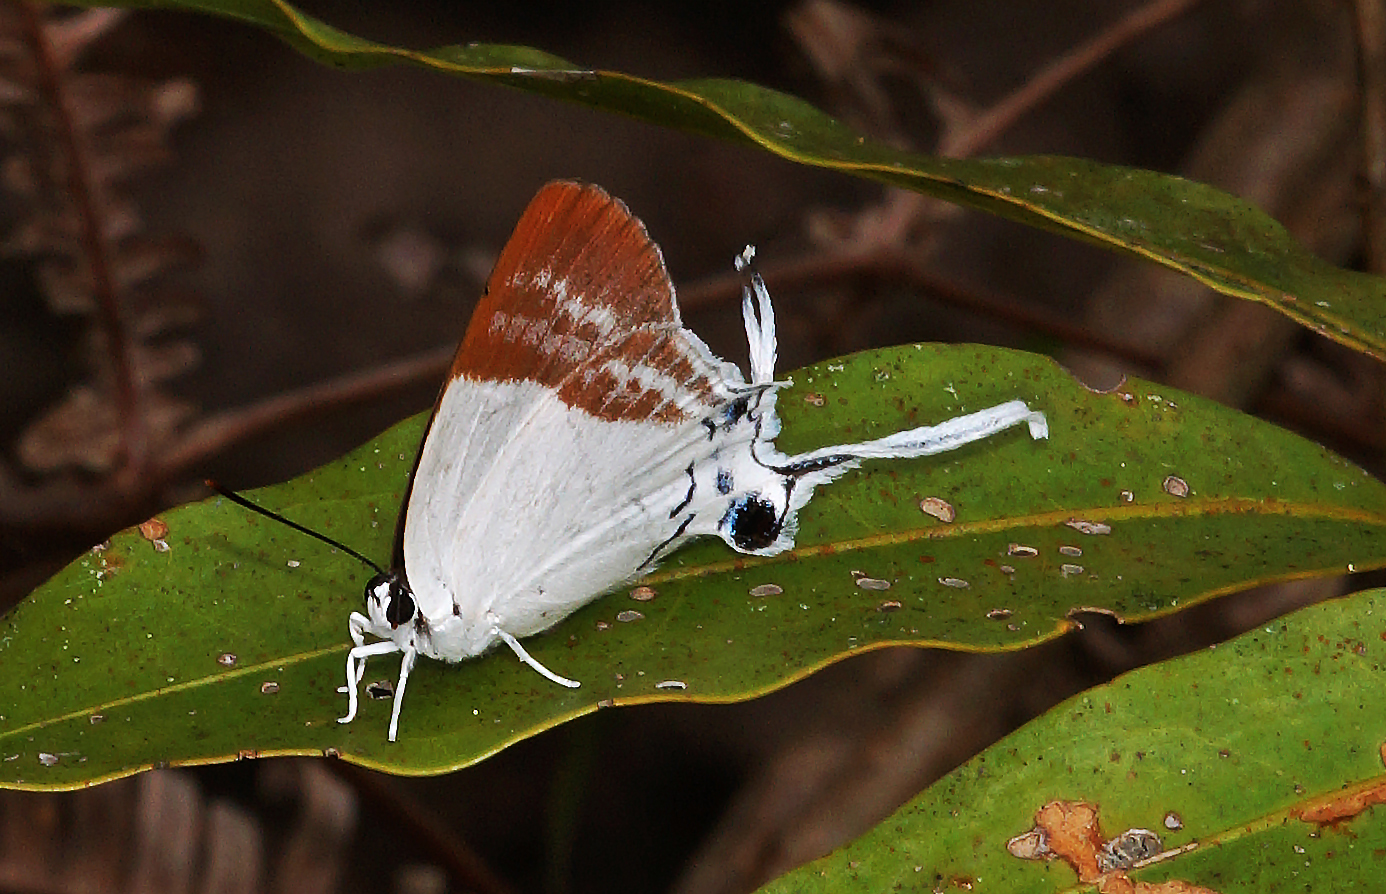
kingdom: Animalia
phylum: Arthropoda
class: Insecta
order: Lepidoptera
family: Lycaenidae
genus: Neocheritra
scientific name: Neocheritra
